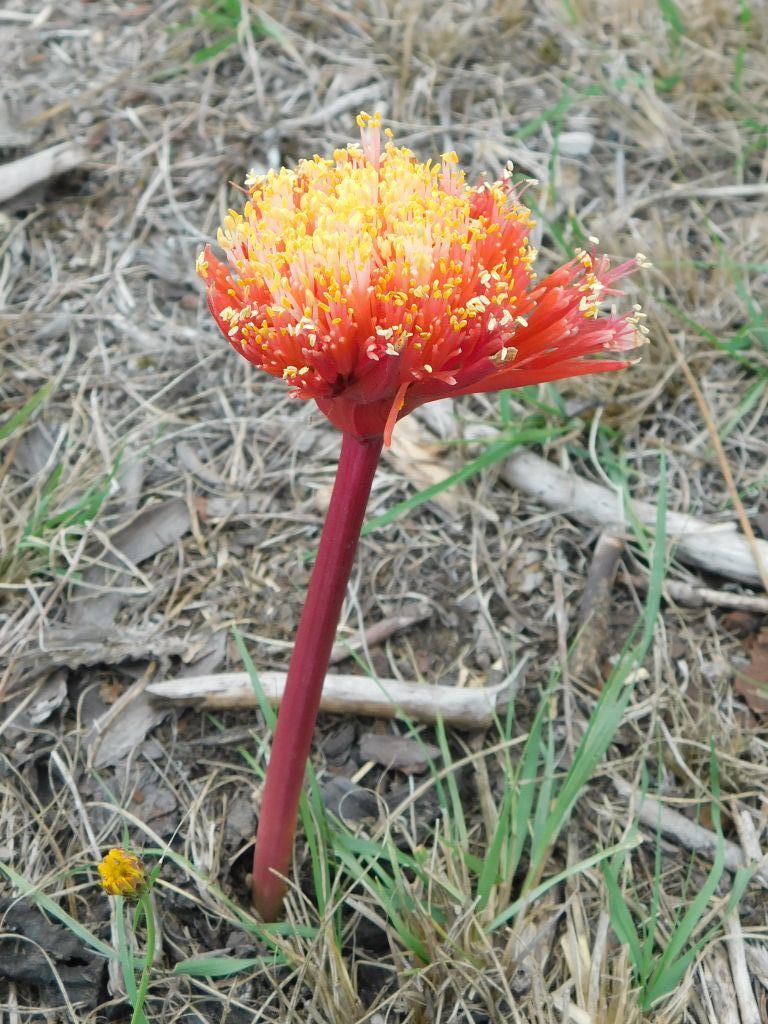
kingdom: Plantae
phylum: Tracheophyta
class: Liliopsida
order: Asparagales
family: Amaryllidaceae
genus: Haemanthus
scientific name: Haemanthus sanguineus
